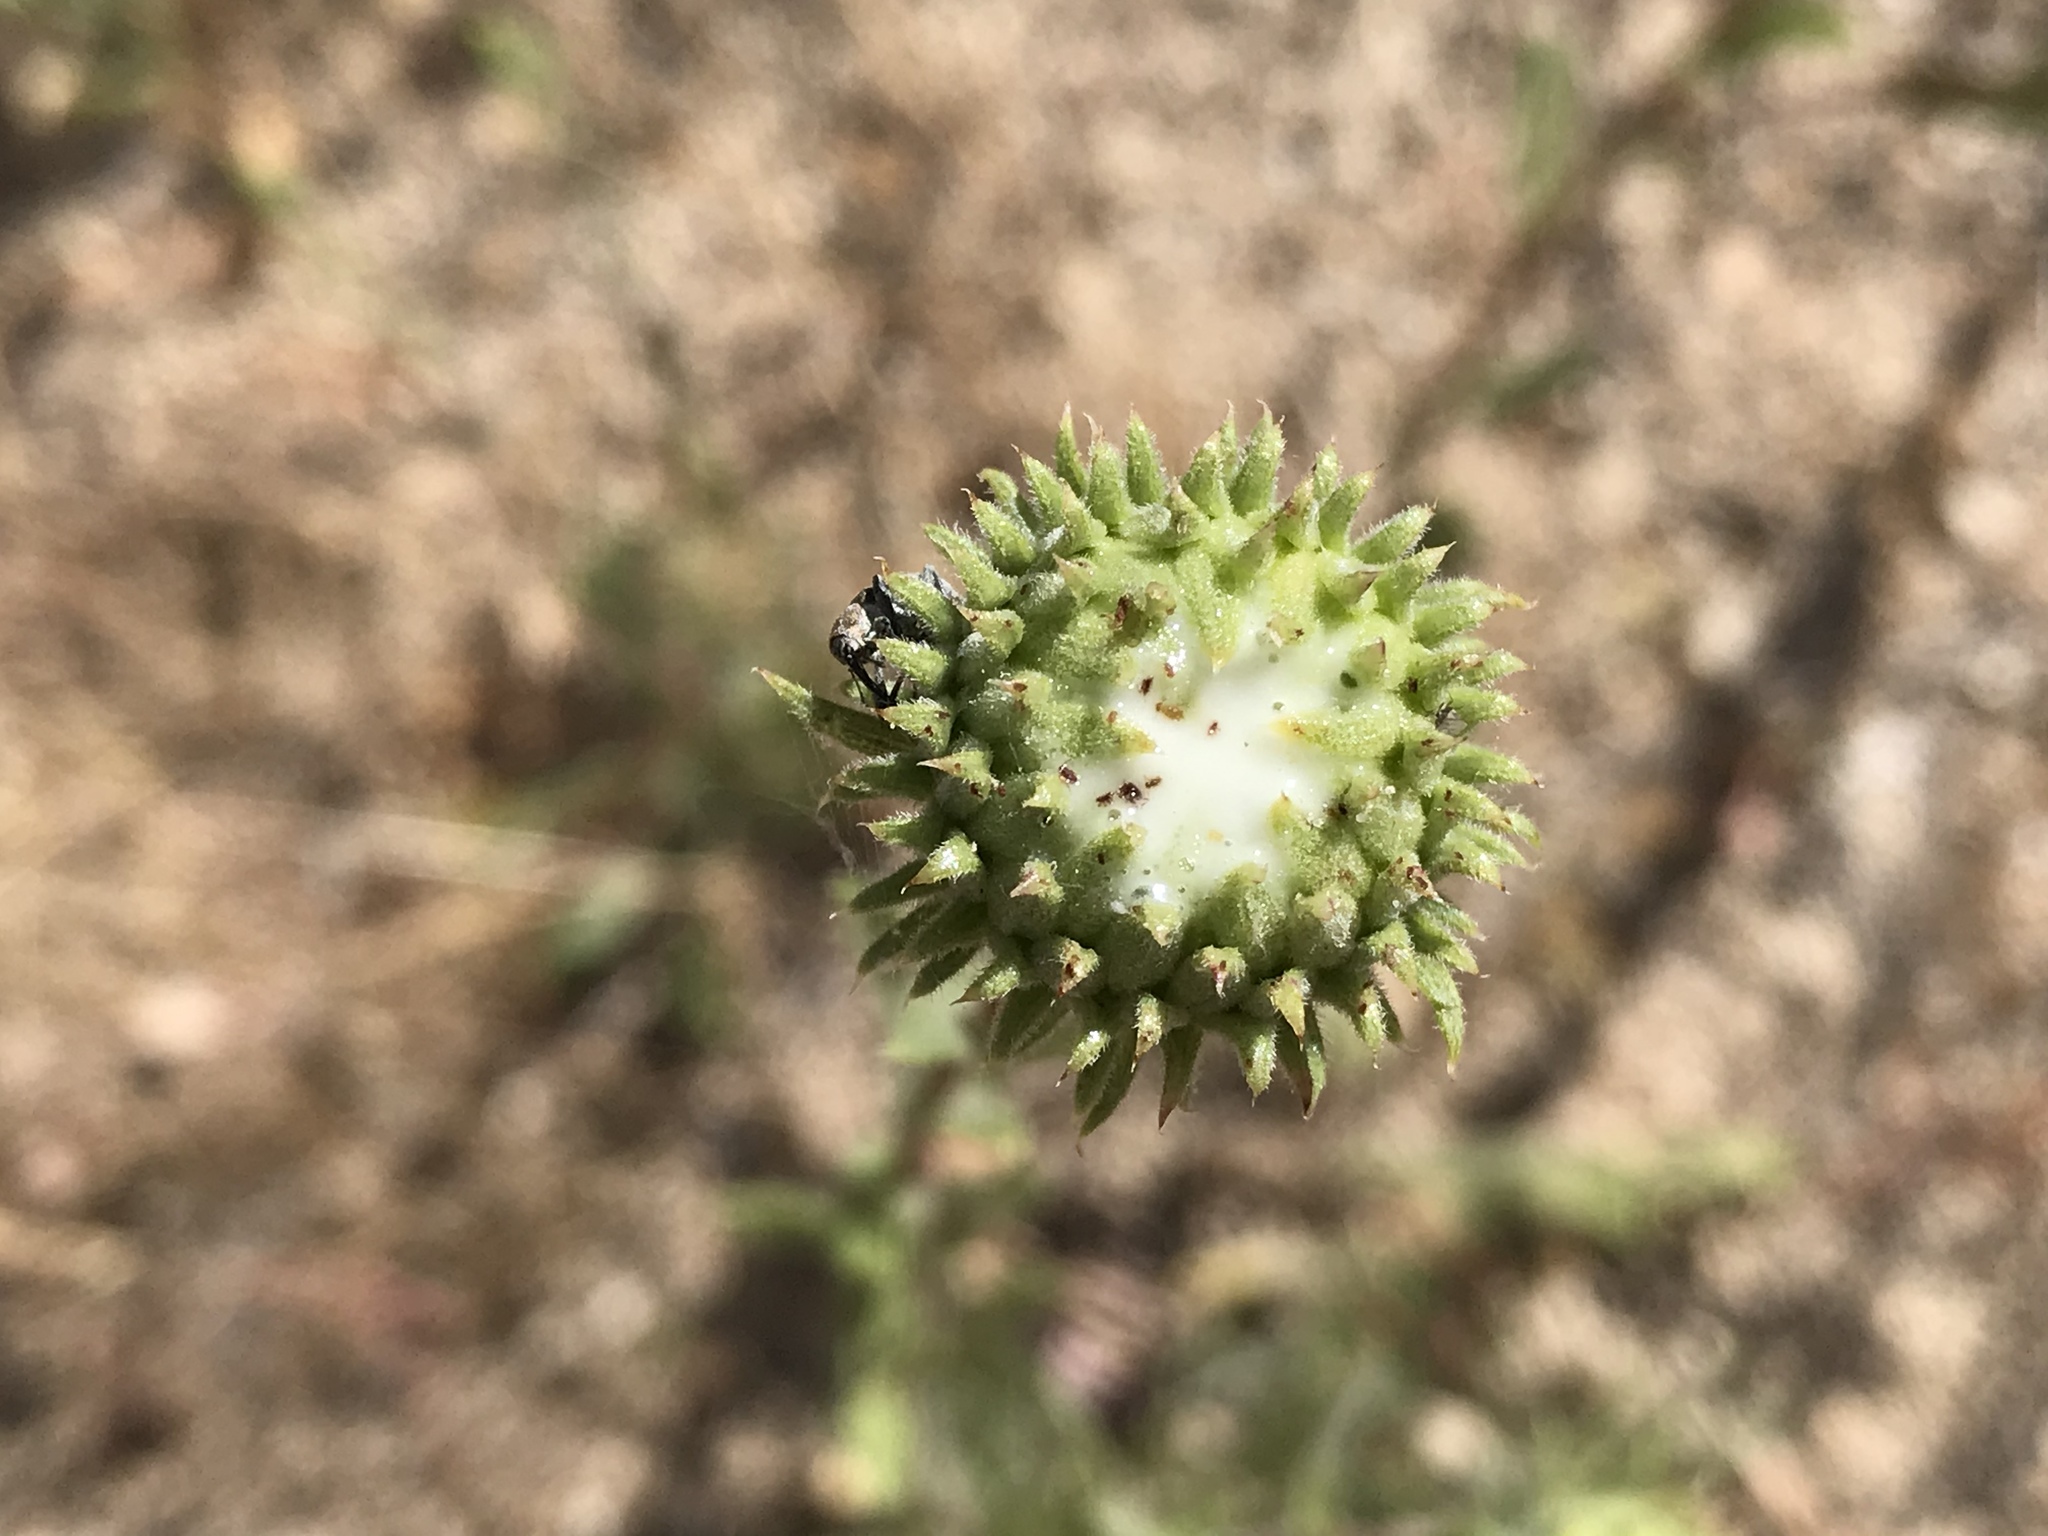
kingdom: Plantae
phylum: Tracheophyta
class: Magnoliopsida
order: Asterales
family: Asteraceae
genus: Grindelia
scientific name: Grindelia hirsutula
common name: Hairy gumweed
